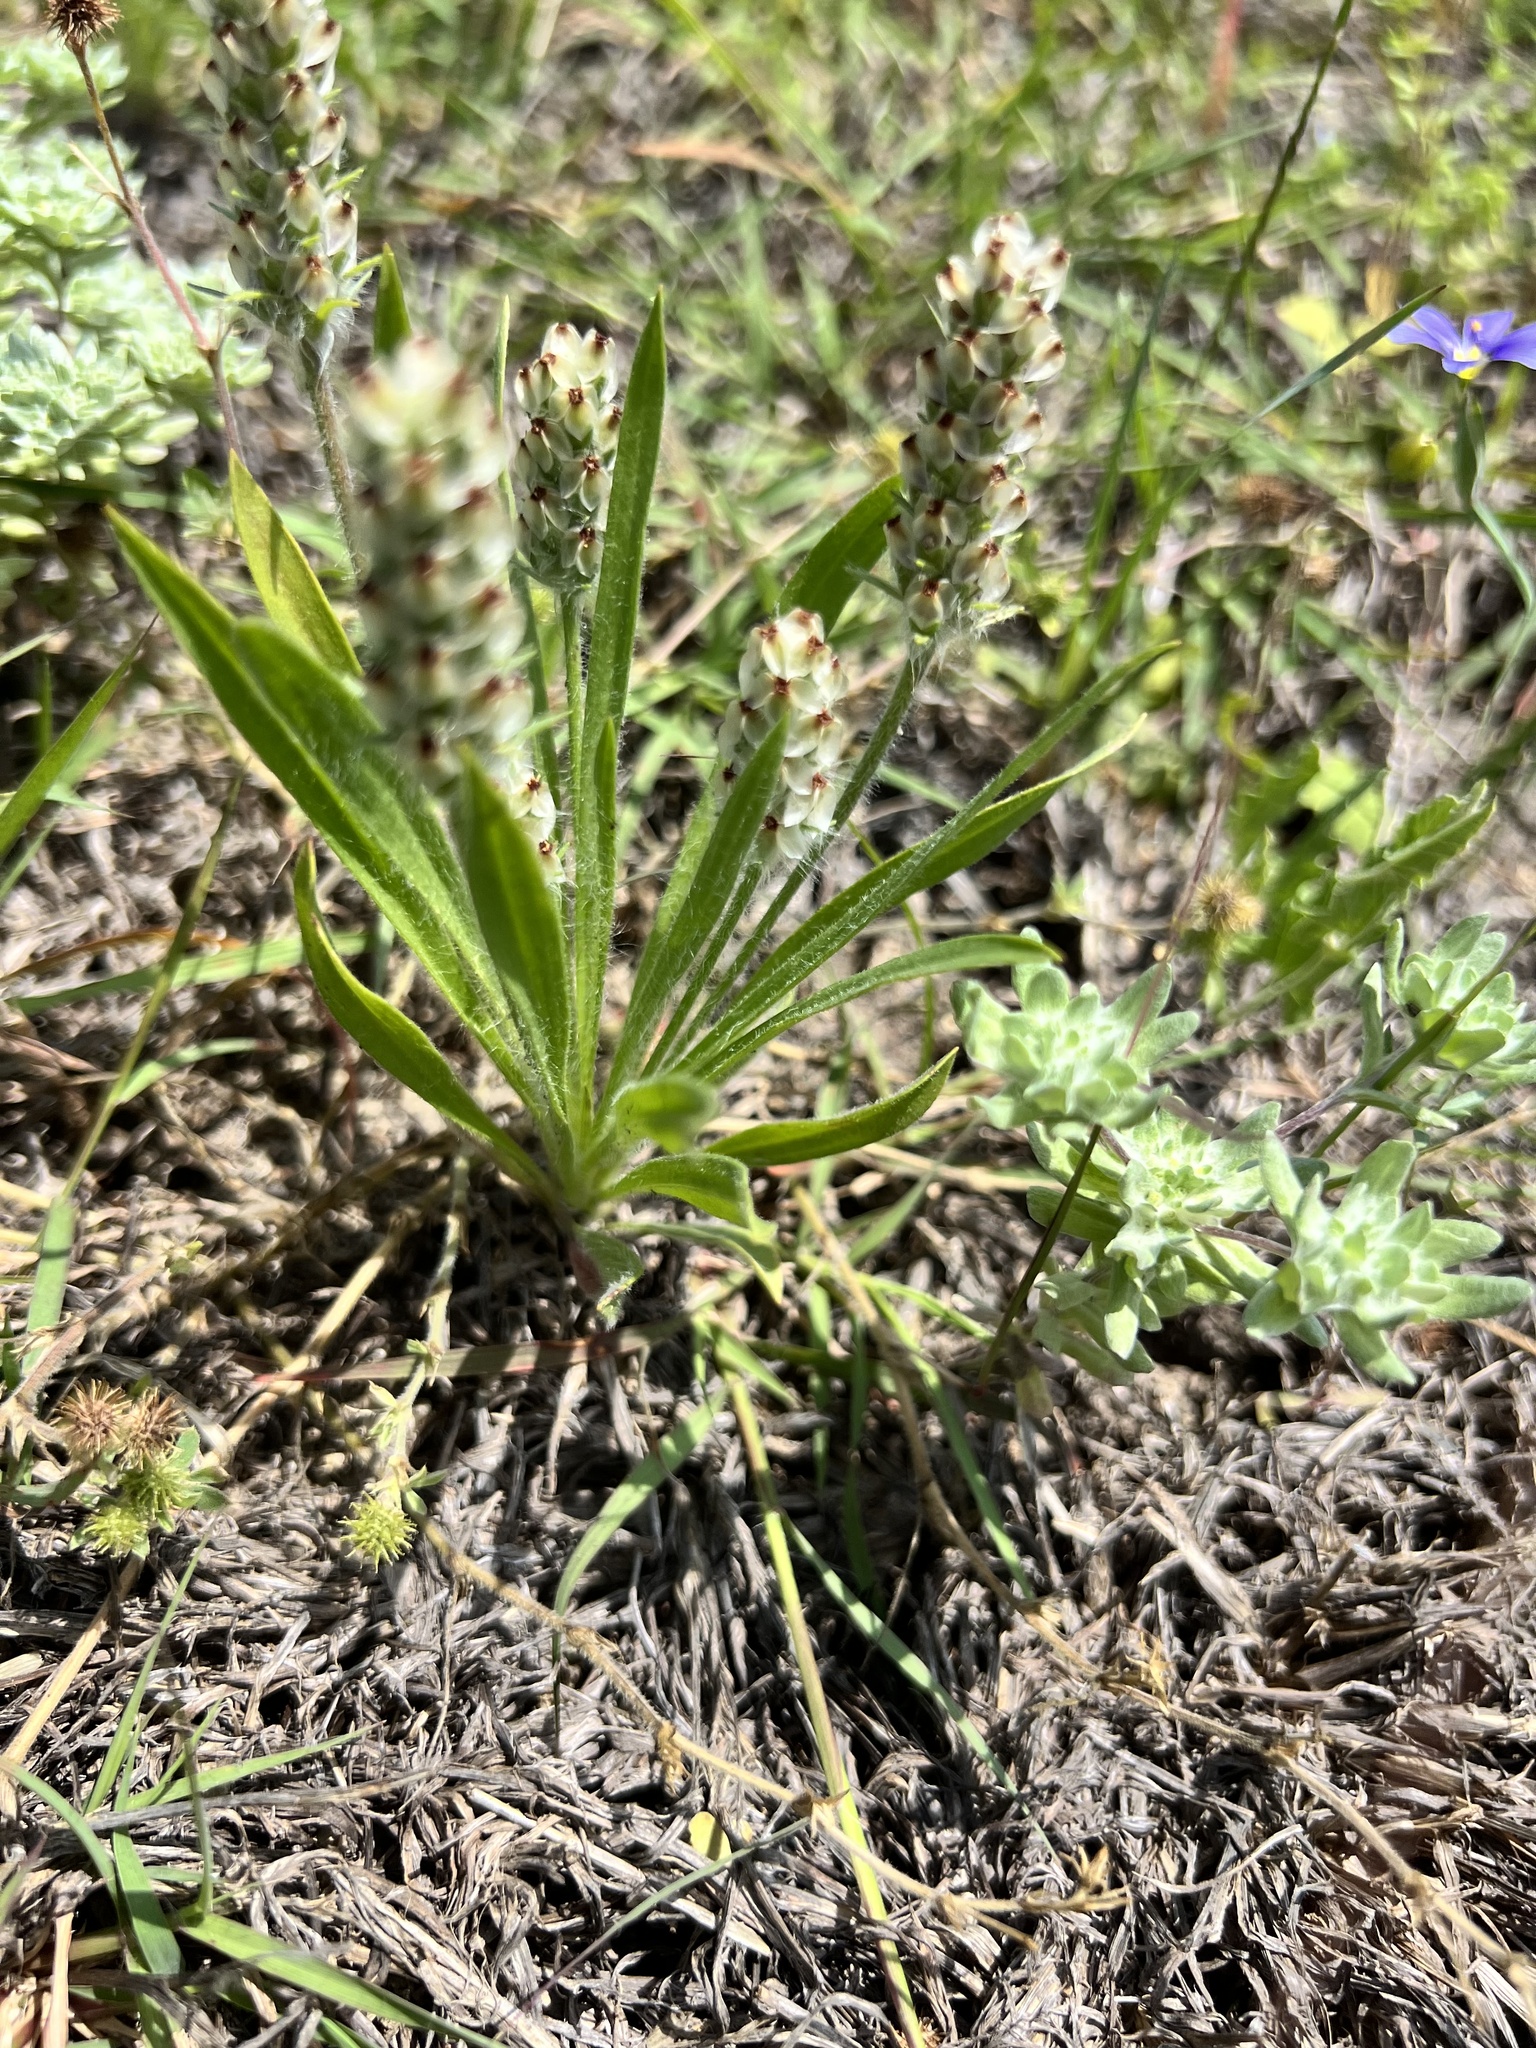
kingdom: Plantae
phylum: Tracheophyta
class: Magnoliopsida
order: Lamiales
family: Plantaginaceae
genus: Plantago
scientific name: Plantago helleri
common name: Heller's plantain
